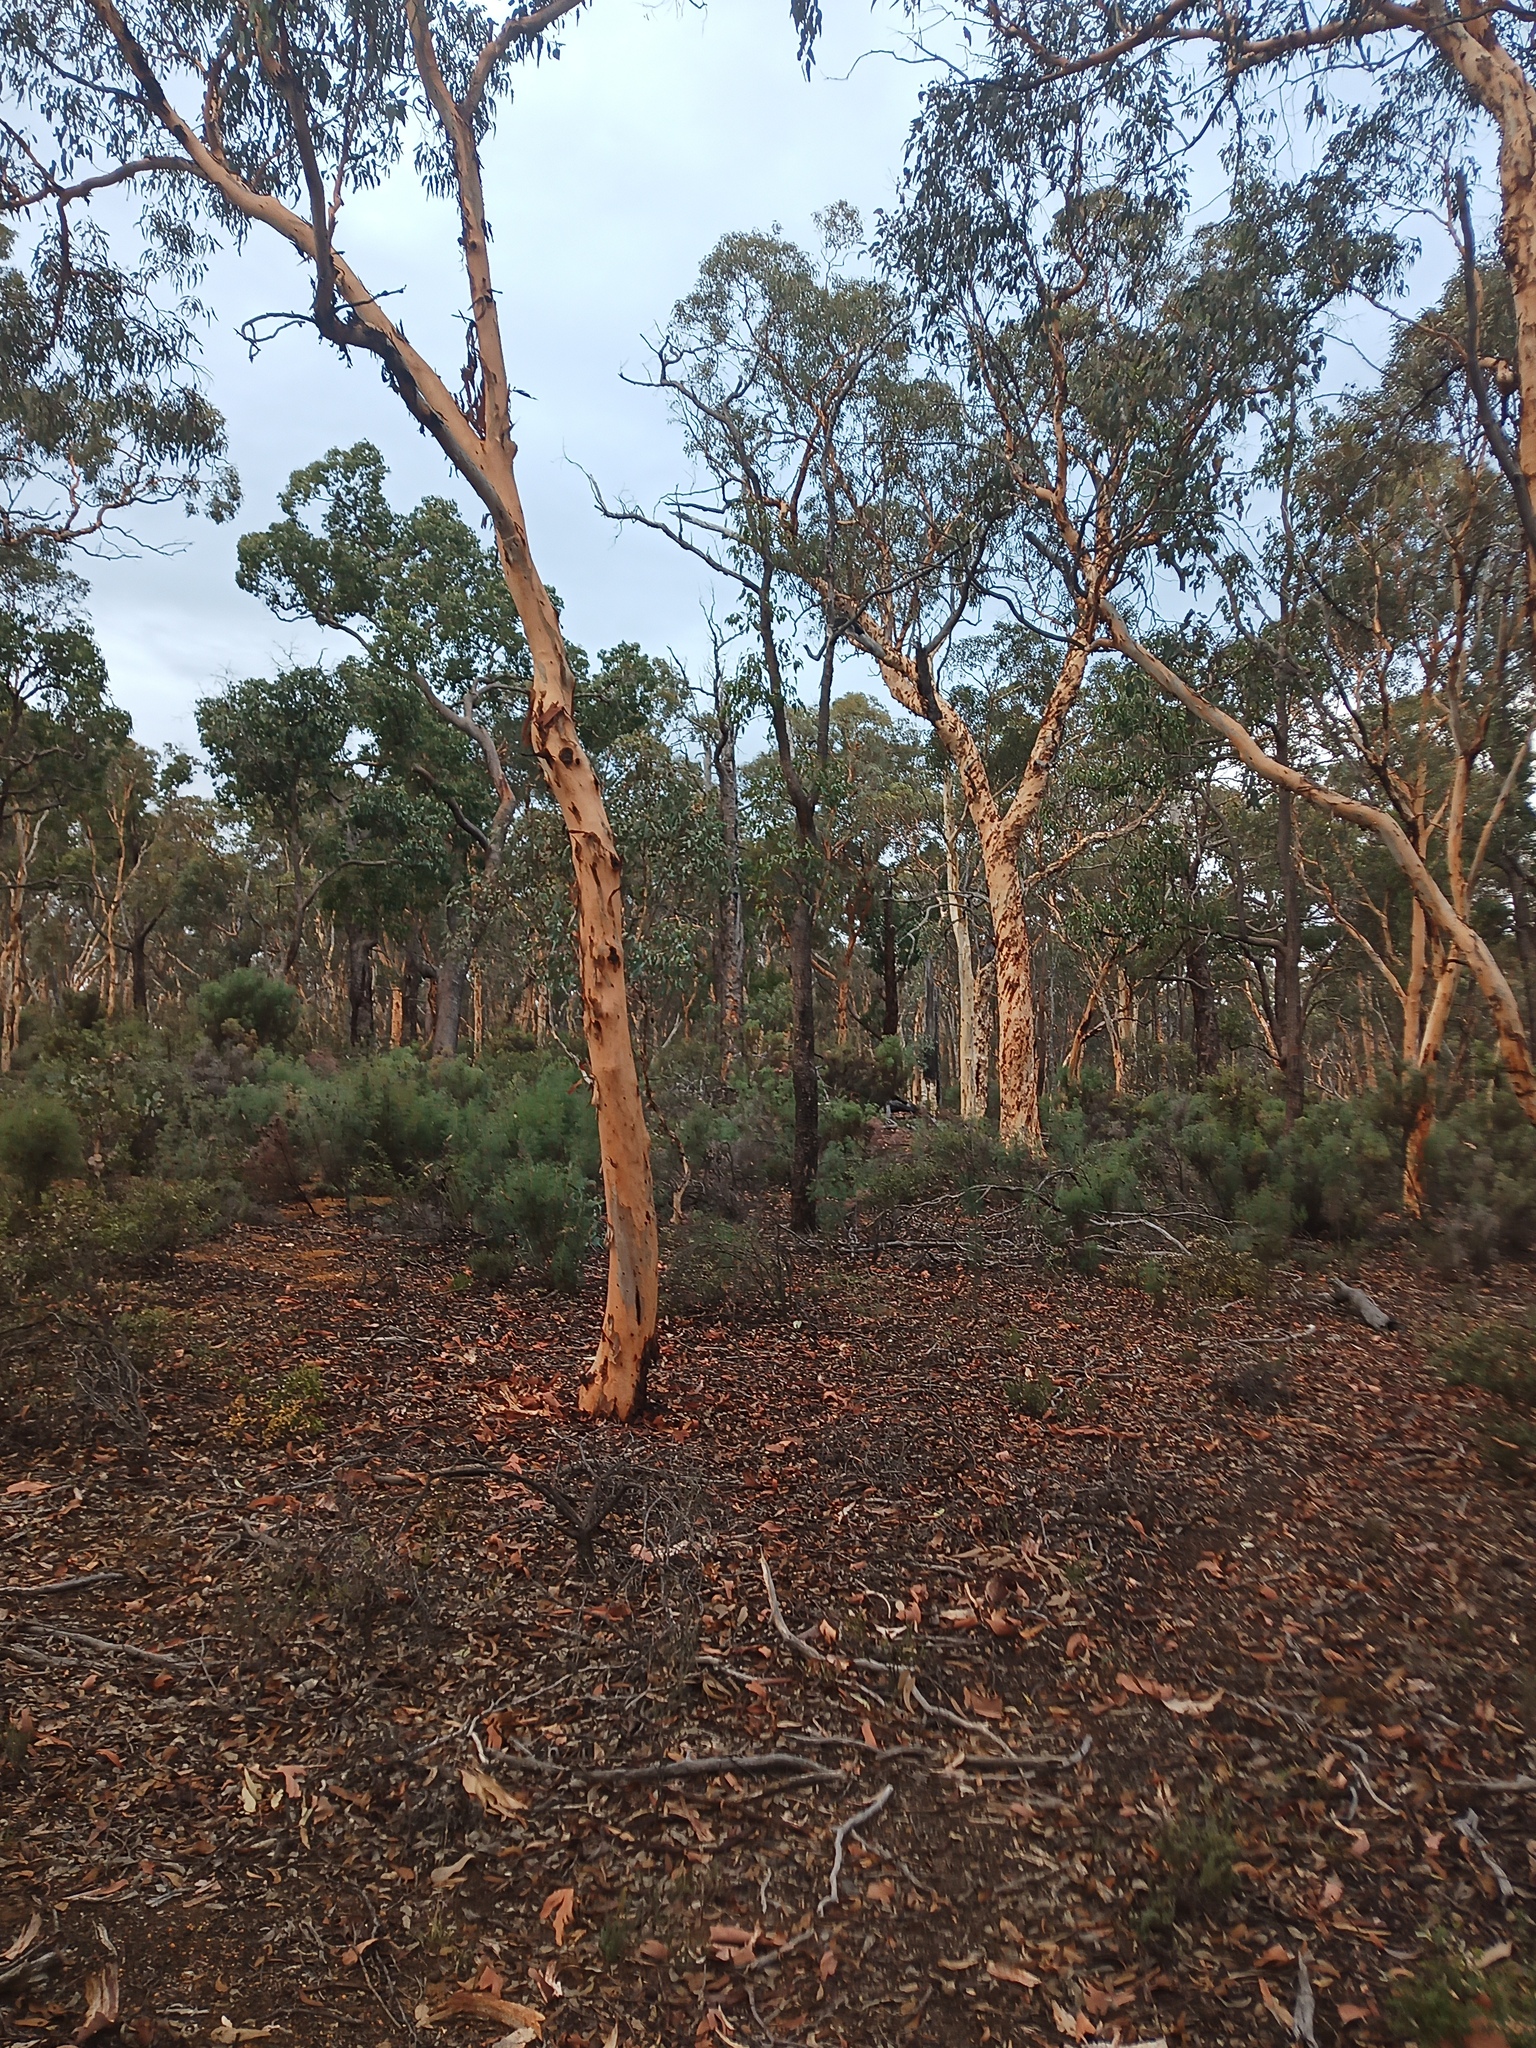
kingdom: Plantae
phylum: Tracheophyta
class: Magnoliopsida
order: Myrtales
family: Myrtaceae
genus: Eucalyptus
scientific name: Eucalyptus accedens
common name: Powder-bark wandoo
